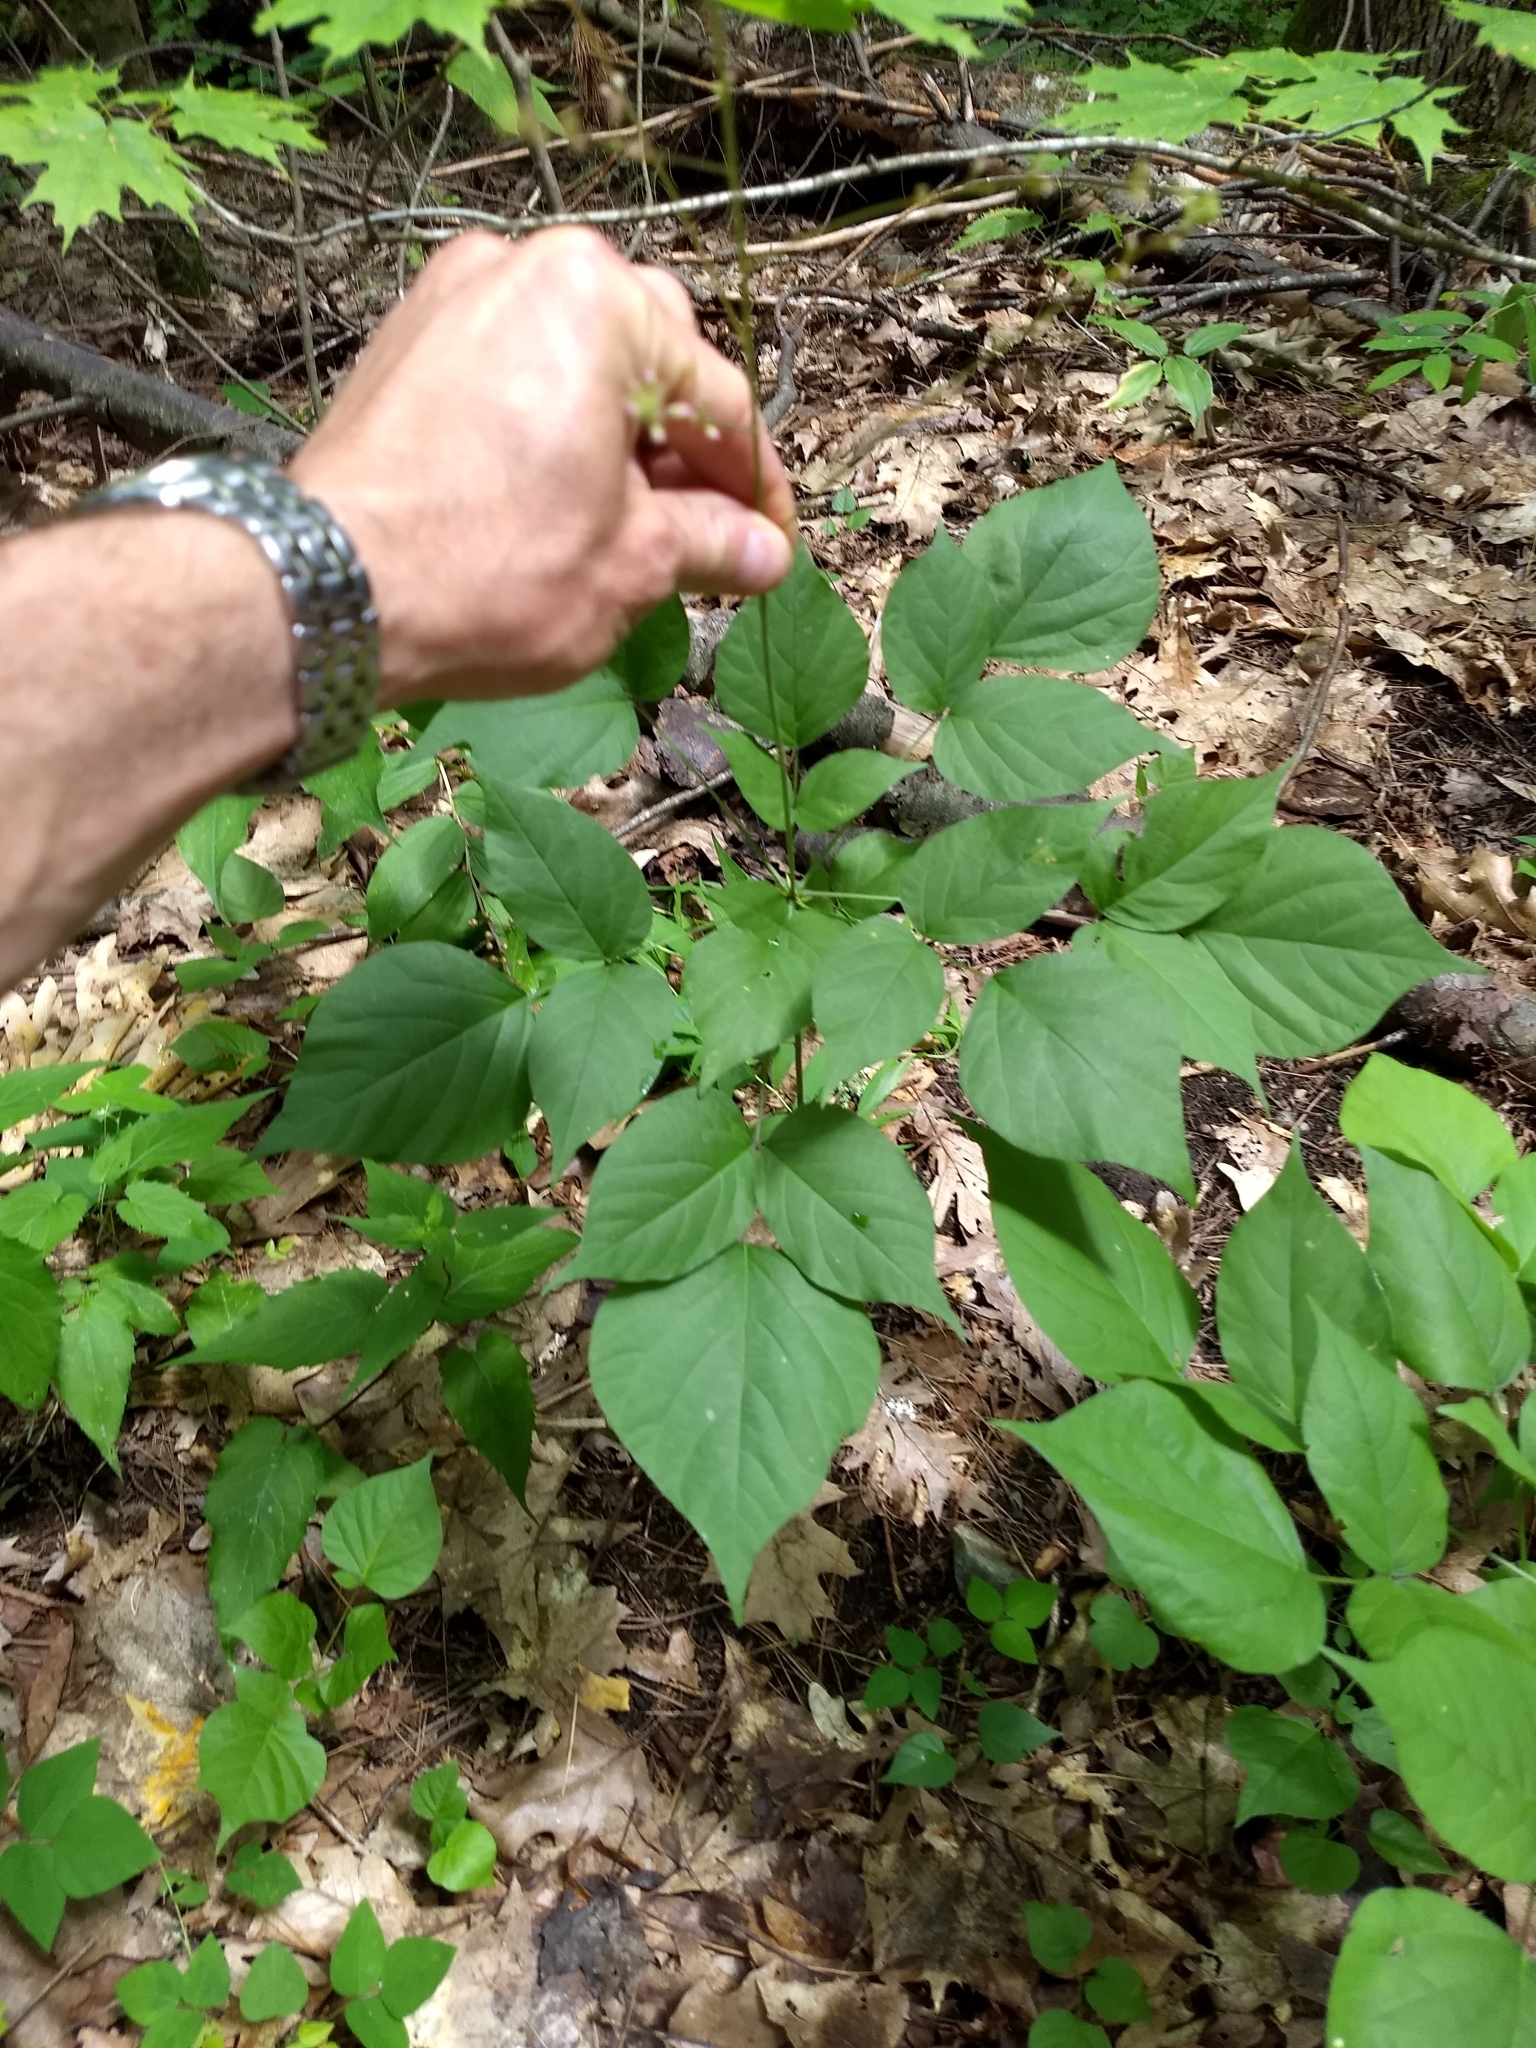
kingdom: Plantae
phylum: Tracheophyta
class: Magnoliopsida
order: Fabales
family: Fabaceae
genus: Hylodesmum
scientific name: Hylodesmum glutinosum
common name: Clustered-leaved tick-trefoil
